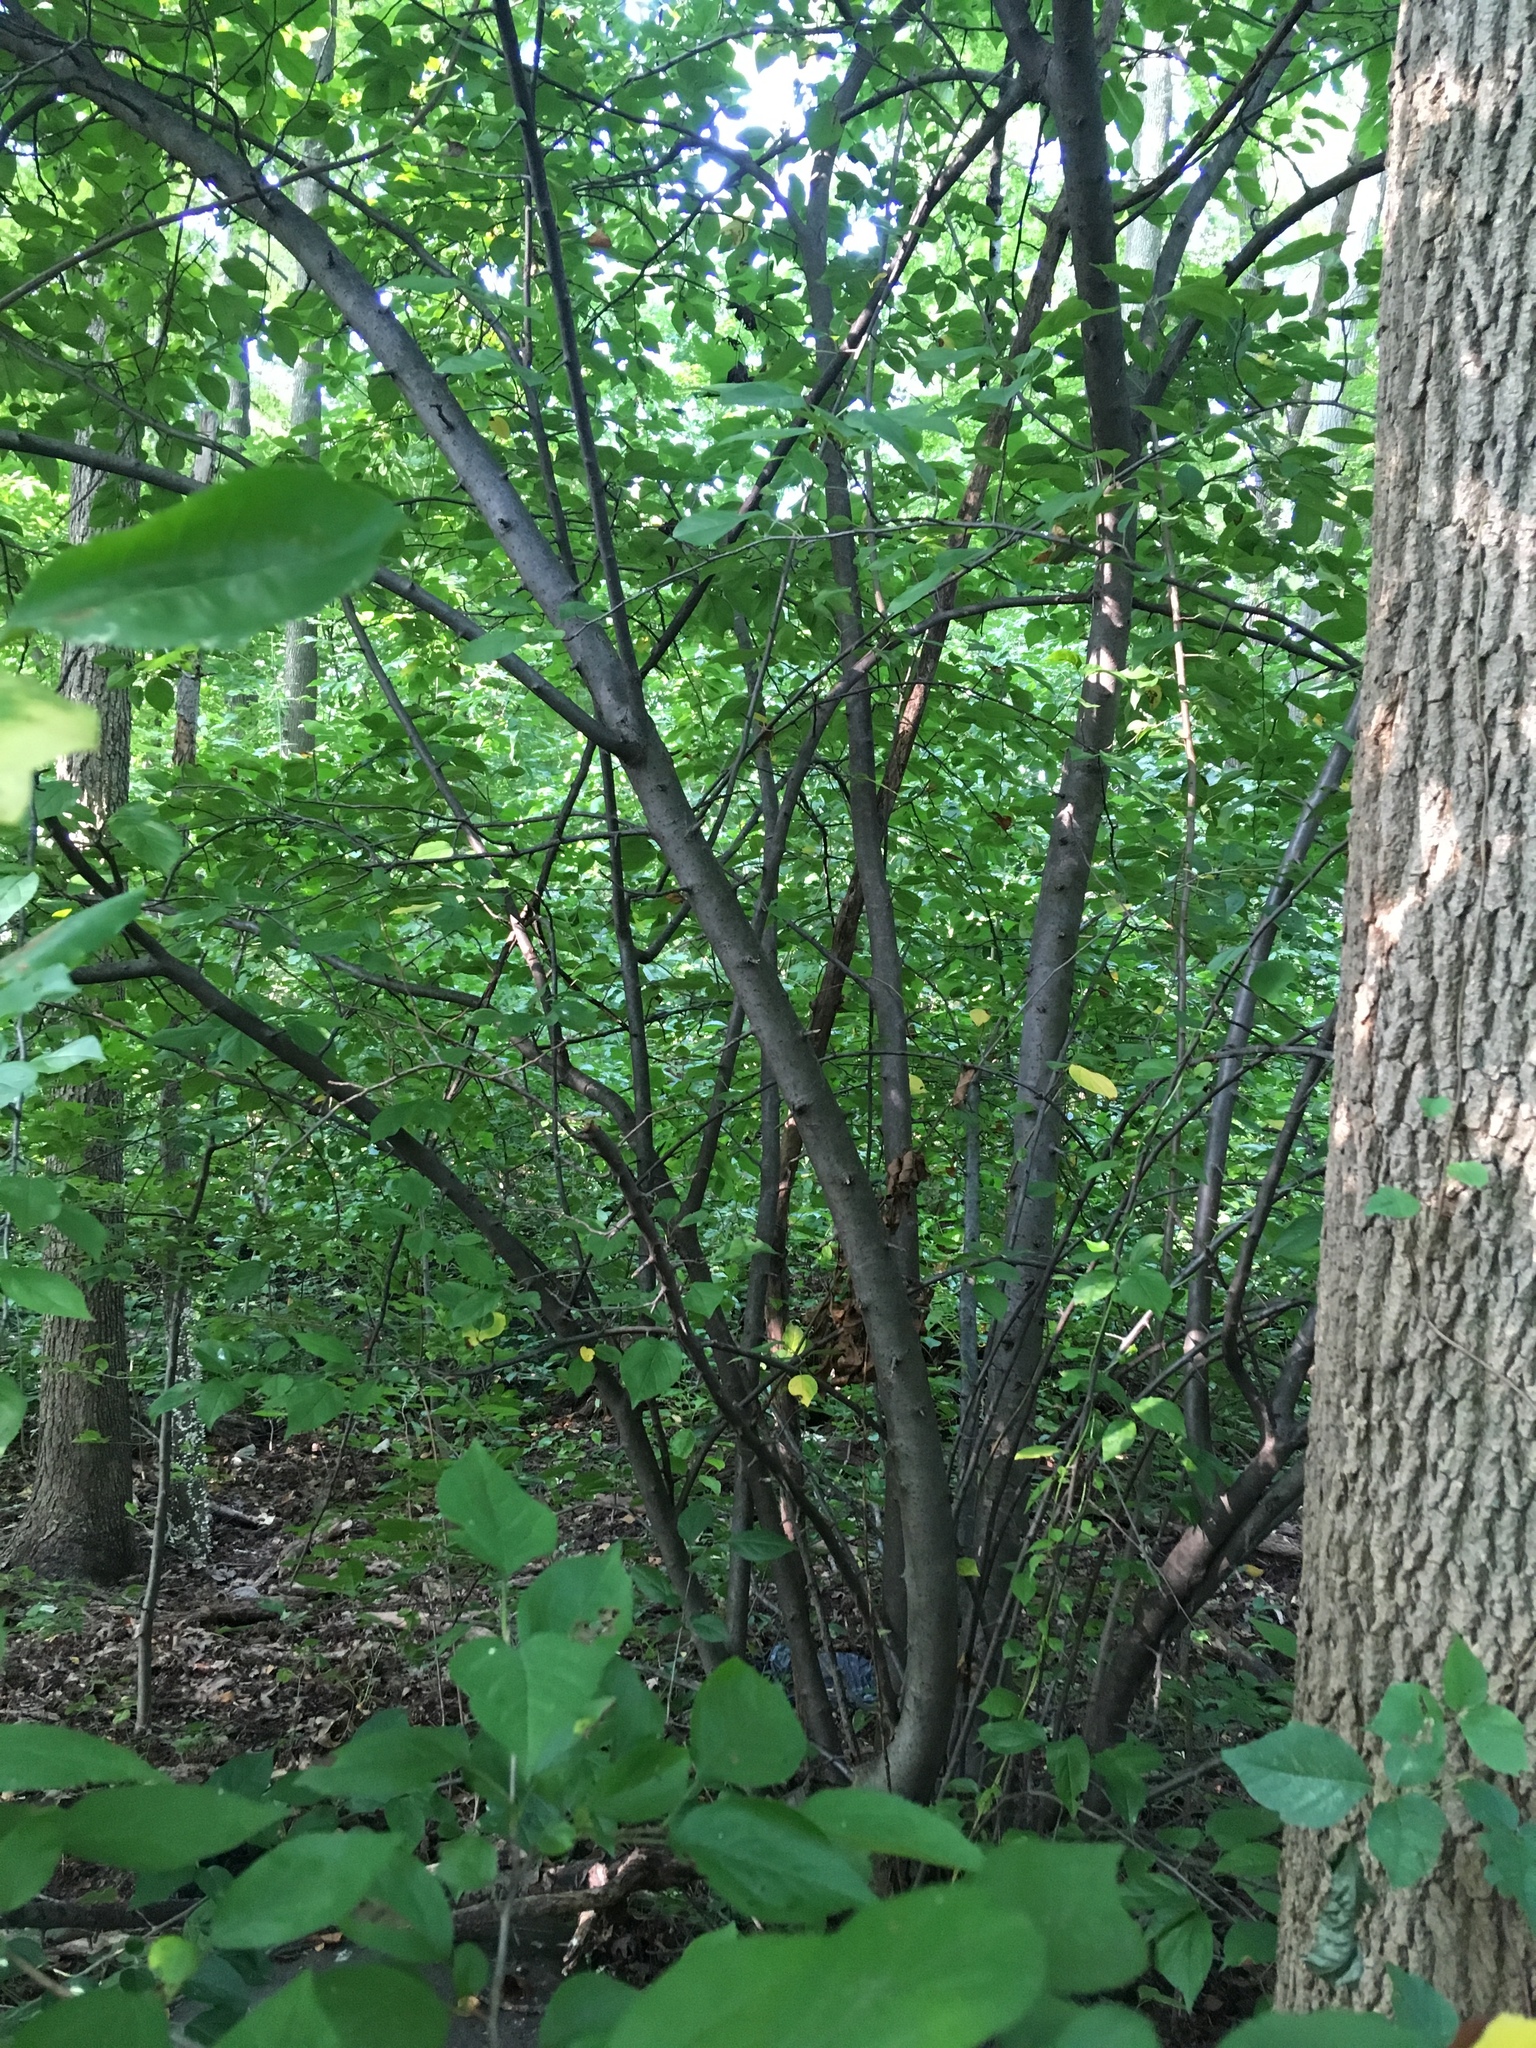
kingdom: Plantae
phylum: Tracheophyta
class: Magnoliopsida
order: Rosales
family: Rosaceae
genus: Malus
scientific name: Malus hupehensis
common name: Chinese crab apple
